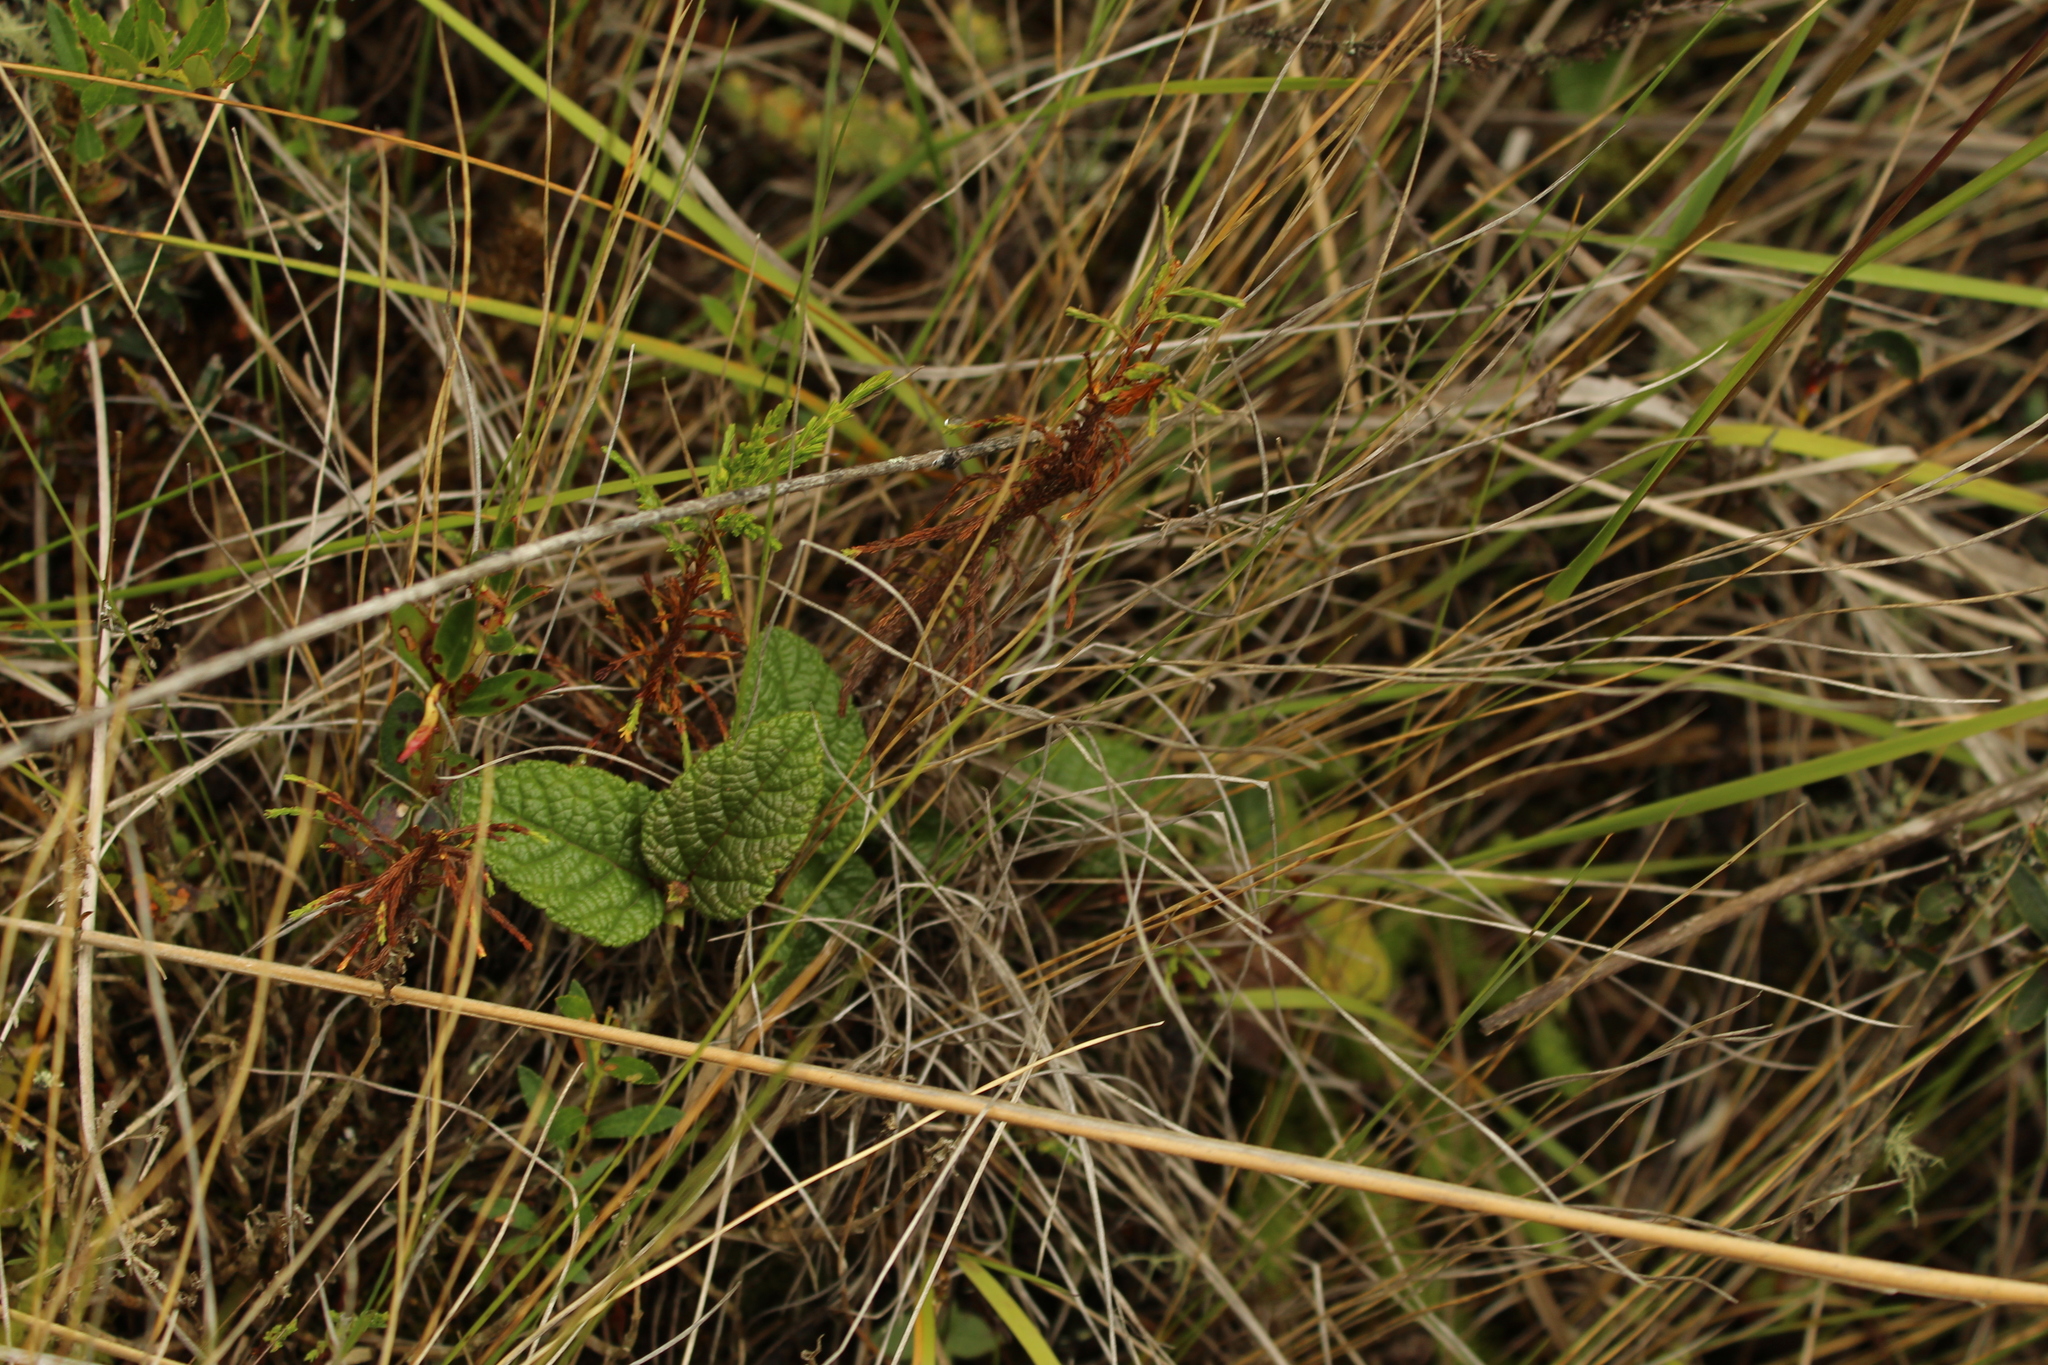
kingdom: Plantae
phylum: Tracheophyta
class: Magnoliopsida
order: Rosales
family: Rosaceae
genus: Rubus
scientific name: Rubus acanthophyllos
